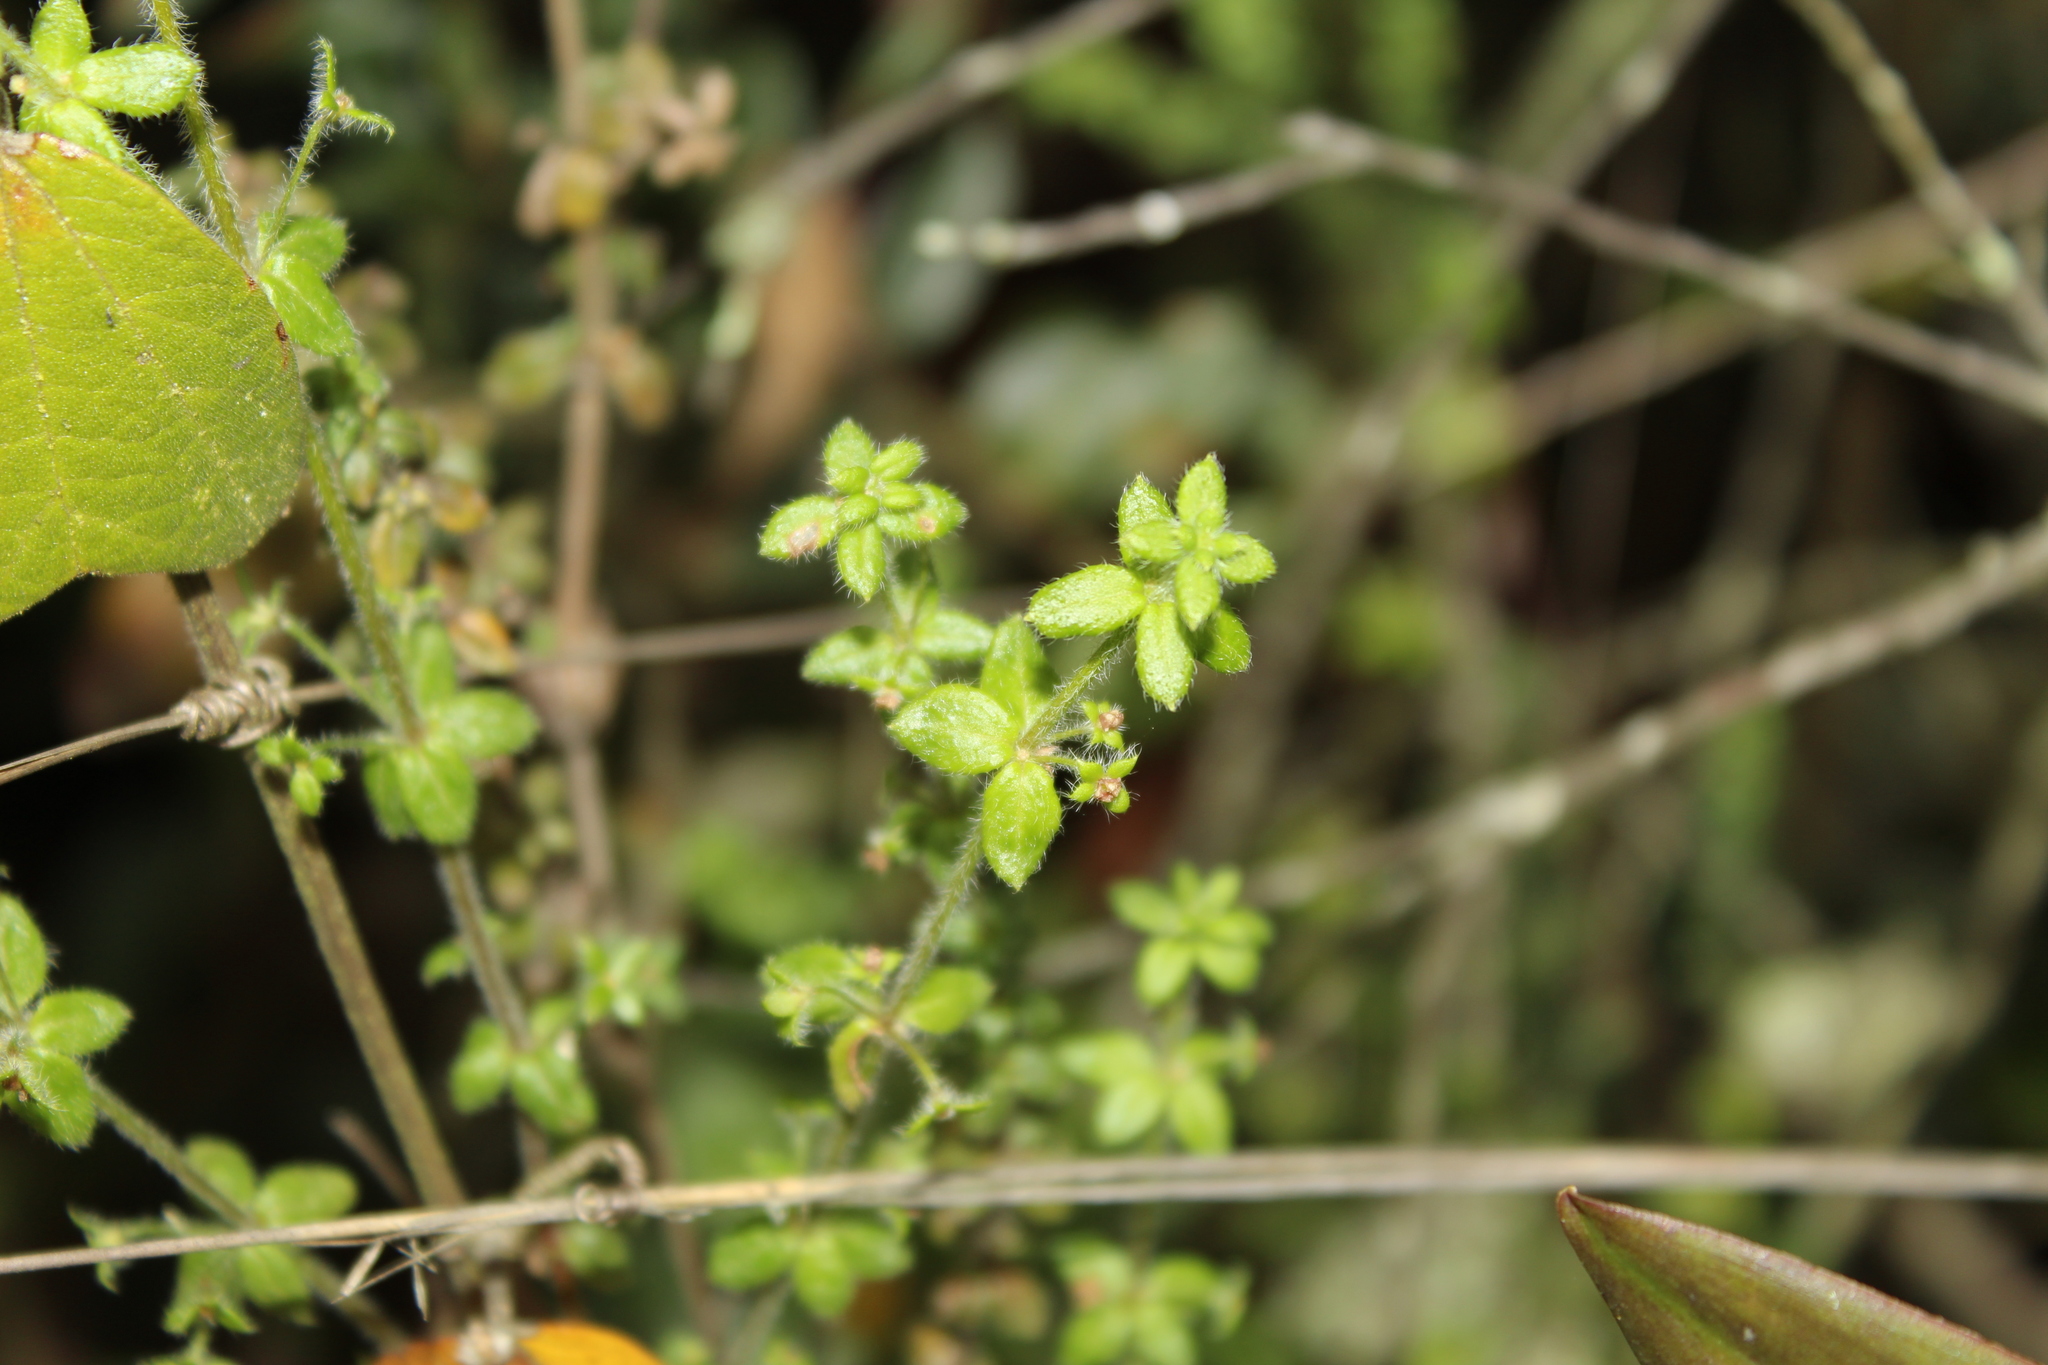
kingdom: Plantae
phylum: Tracheophyta
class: Magnoliopsida
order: Gentianales
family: Rubiaceae
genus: Galium
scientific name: Galium hypocarpium
